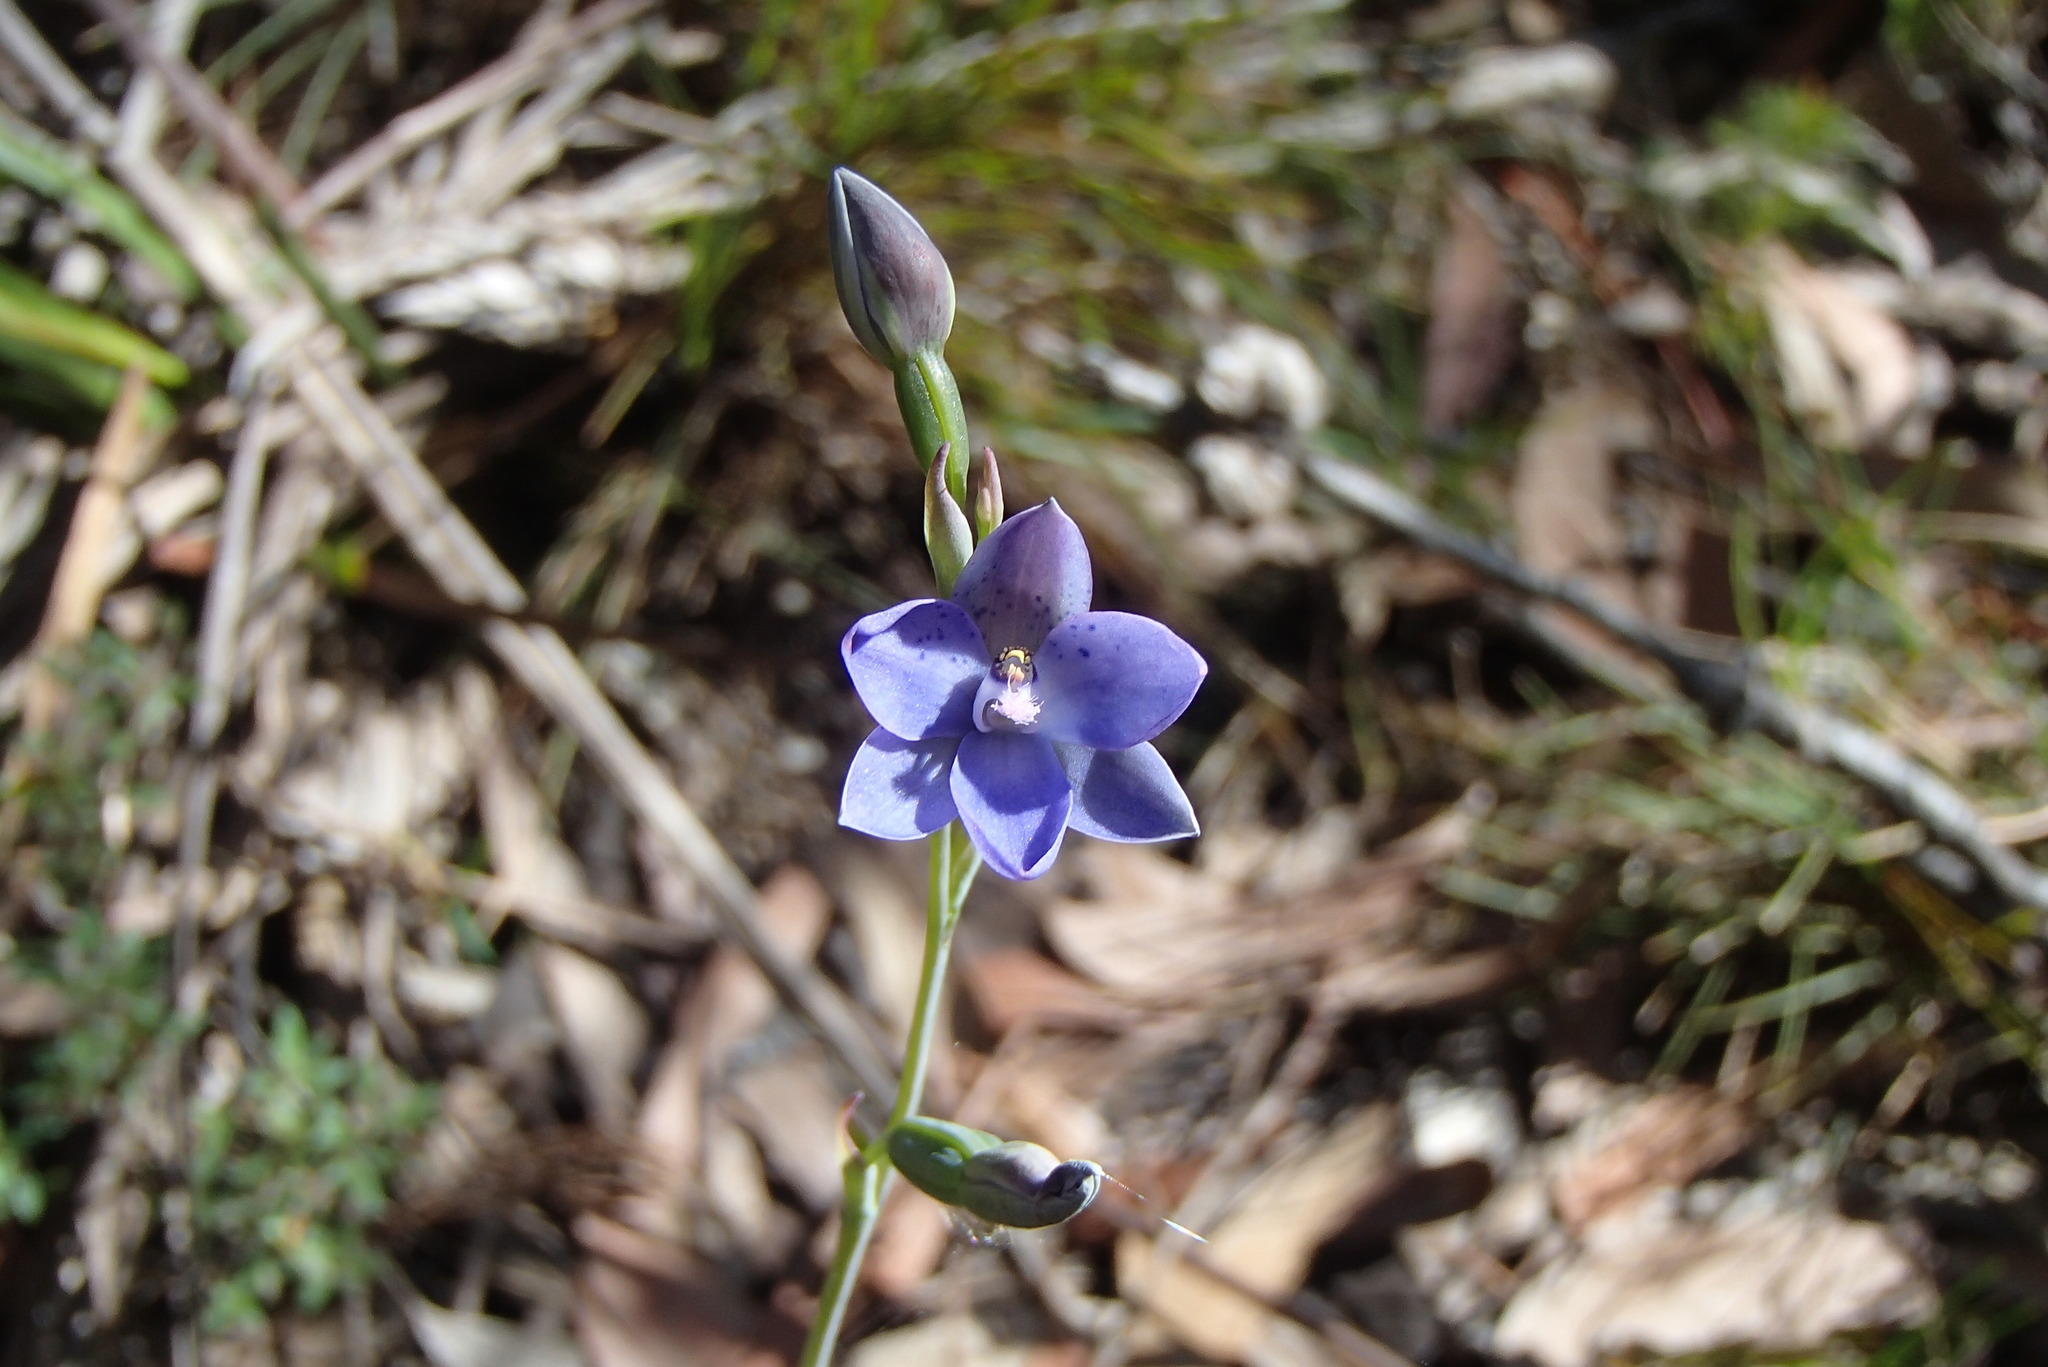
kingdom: Plantae
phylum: Tracheophyta
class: Liliopsida
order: Asparagales
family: Orchidaceae
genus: Thelymitra
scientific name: Thelymitra ixioides
